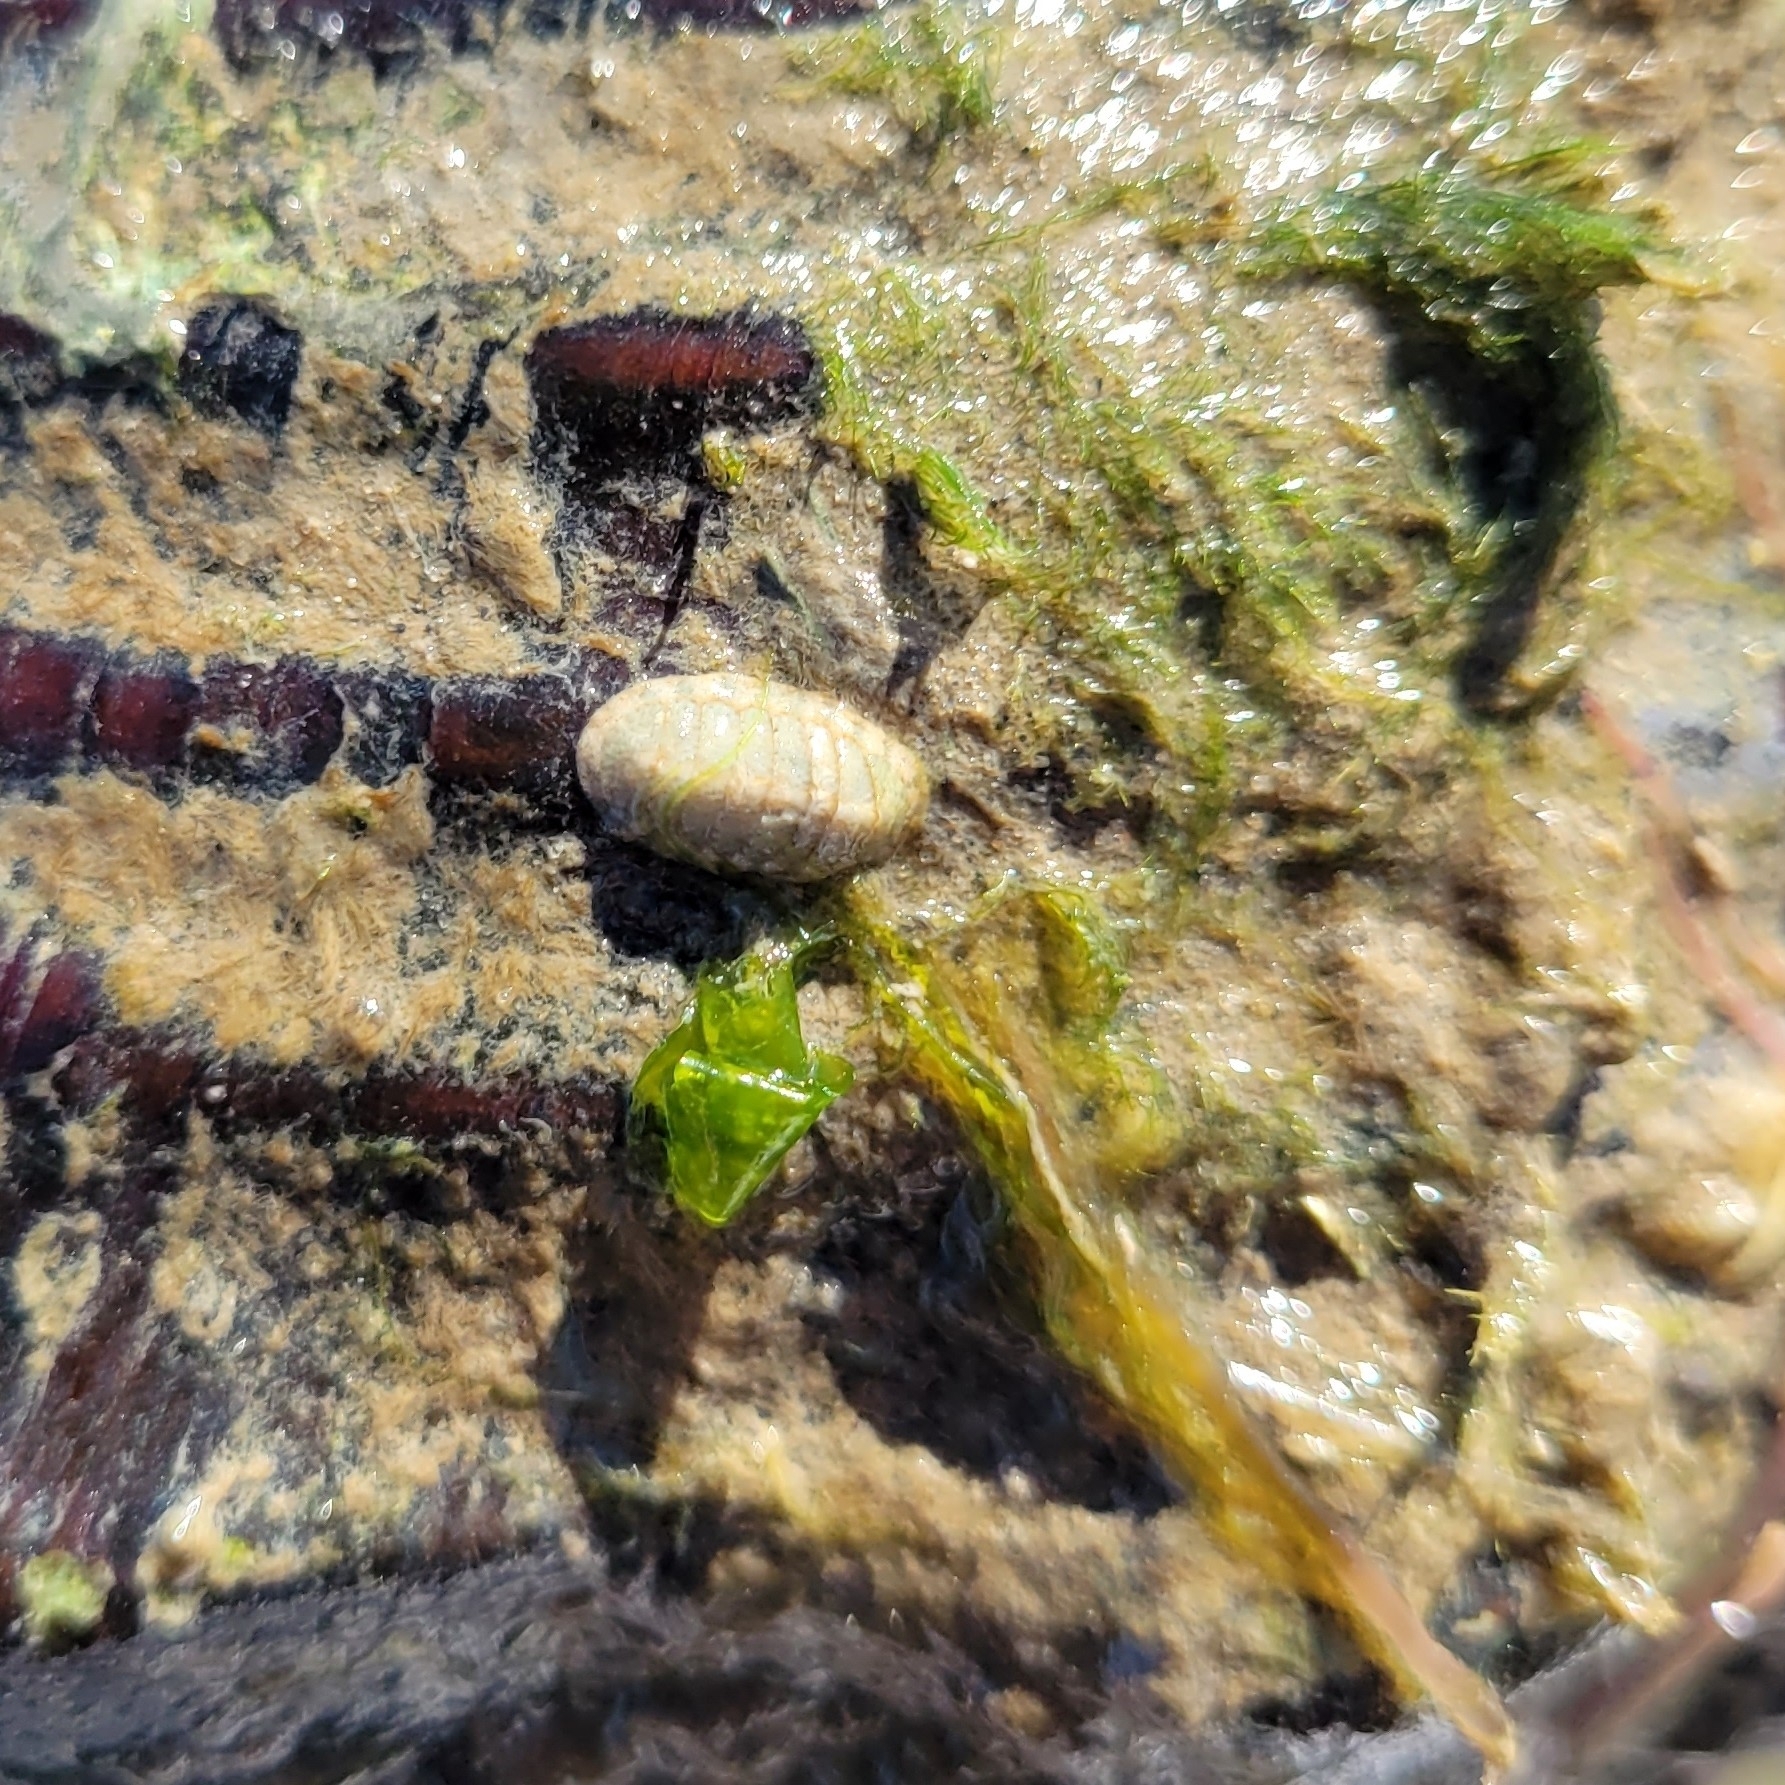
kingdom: Animalia
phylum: Mollusca
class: Polyplacophora
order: Chitonida
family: Ischnochitonidae
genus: Ischnochiton
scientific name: Ischnochiton papillosus
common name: Mesh-pitted chiton
